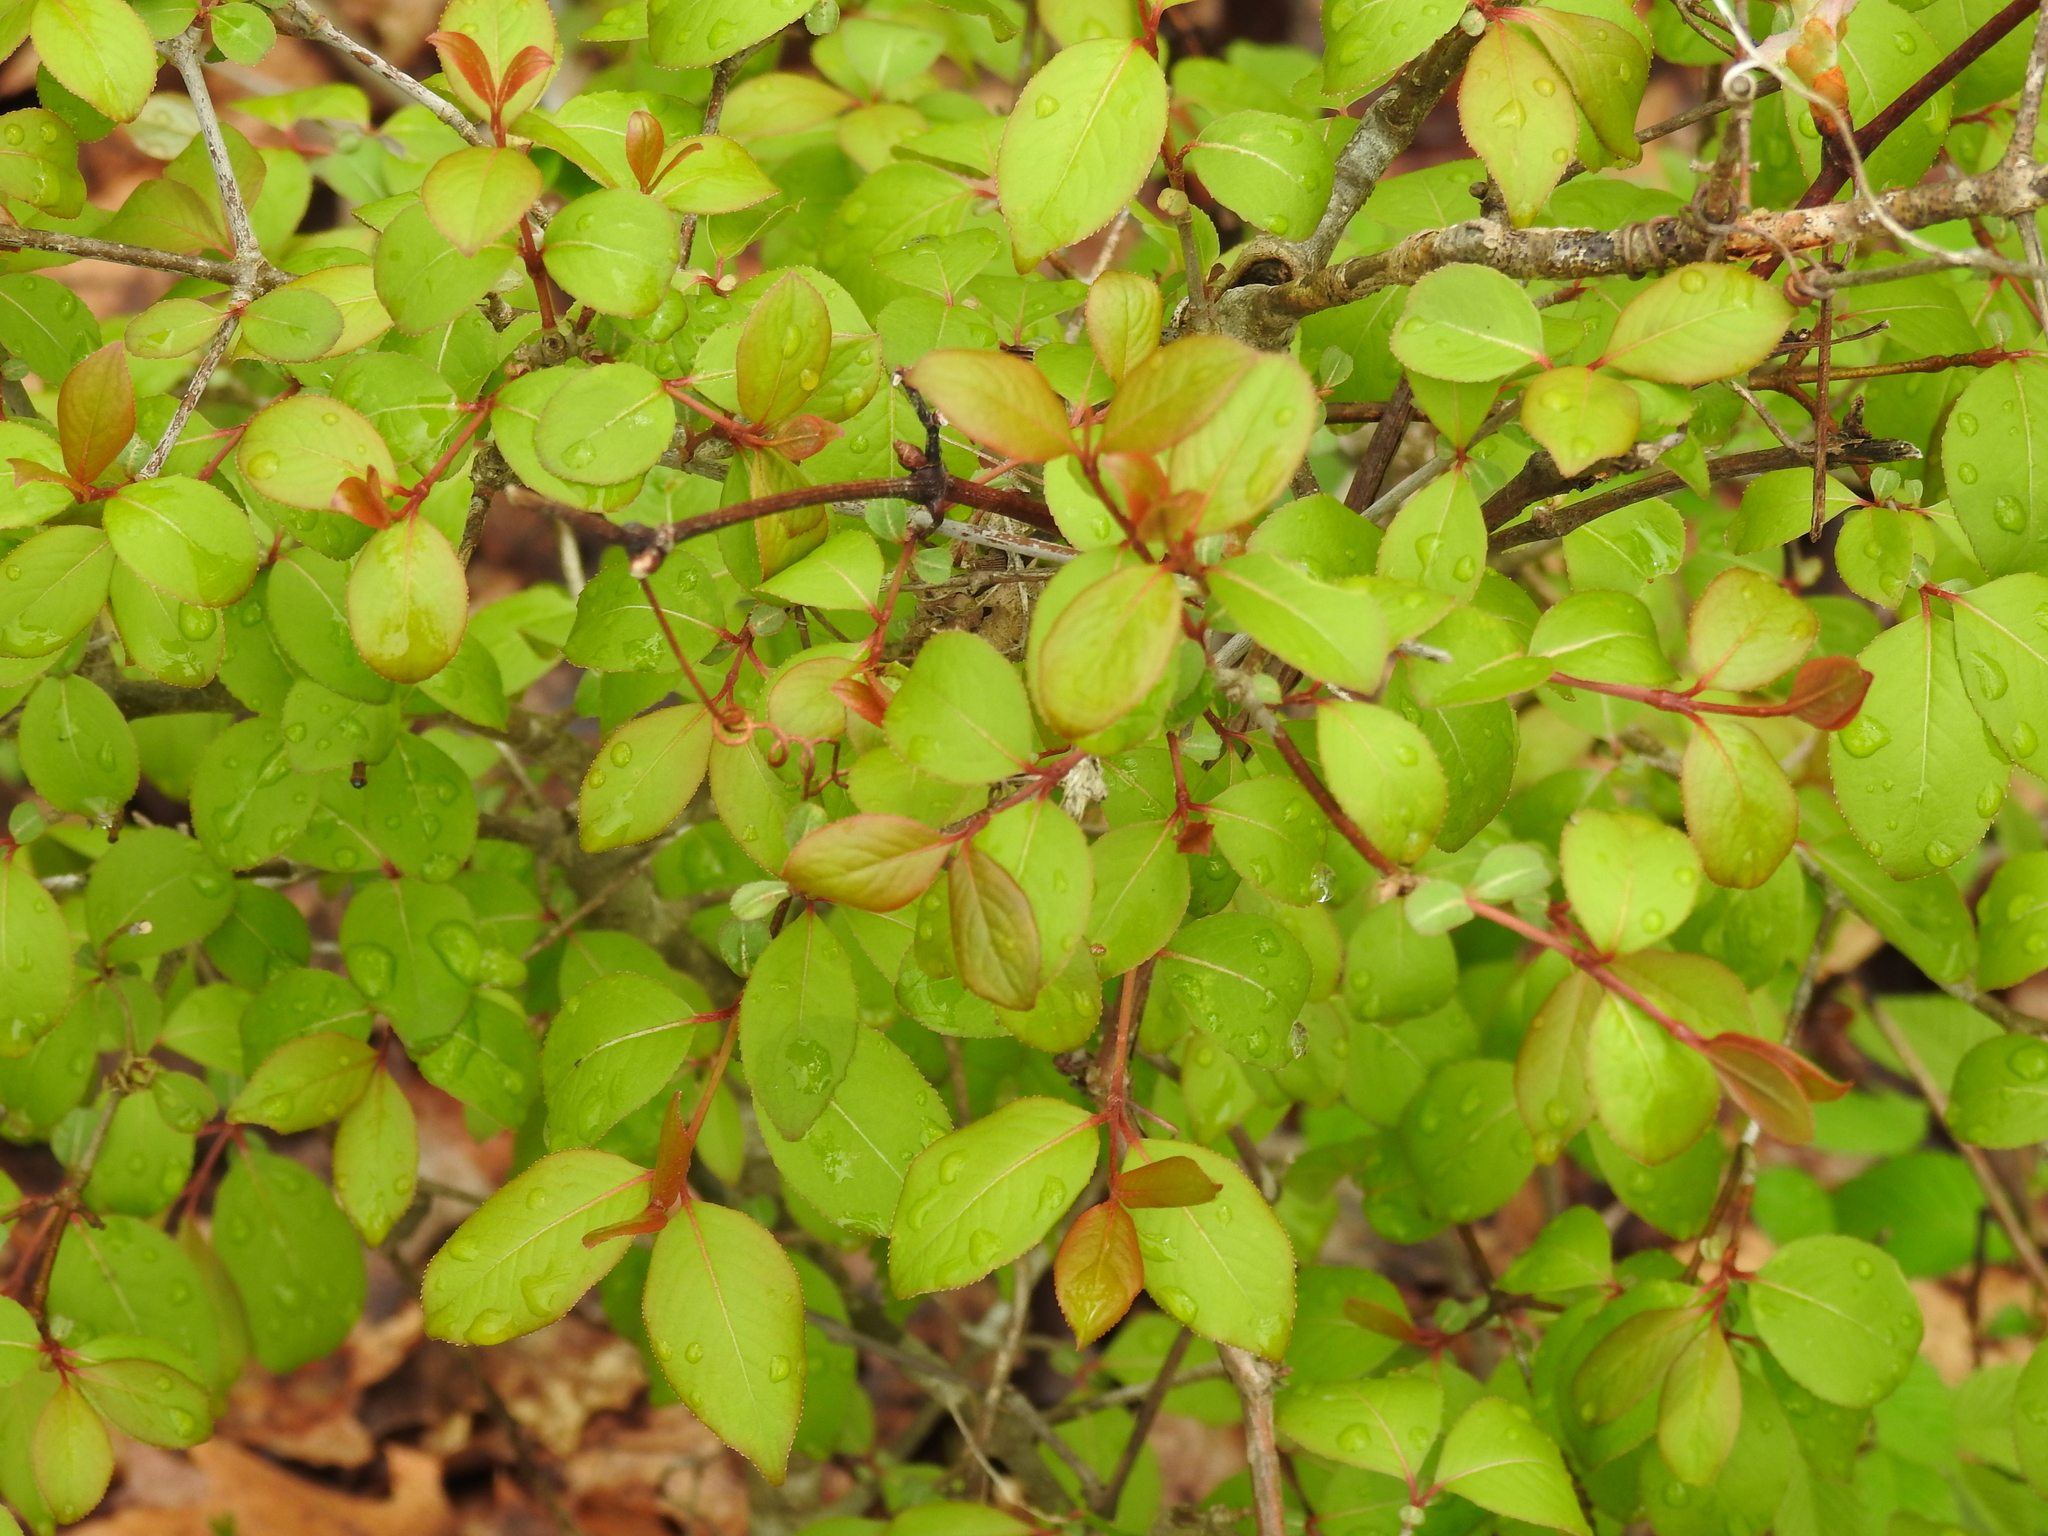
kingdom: Plantae
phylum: Tracheophyta
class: Magnoliopsida
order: Dipsacales
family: Viburnaceae
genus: Viburnum
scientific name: Viburnum prunifolium
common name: Black haw
